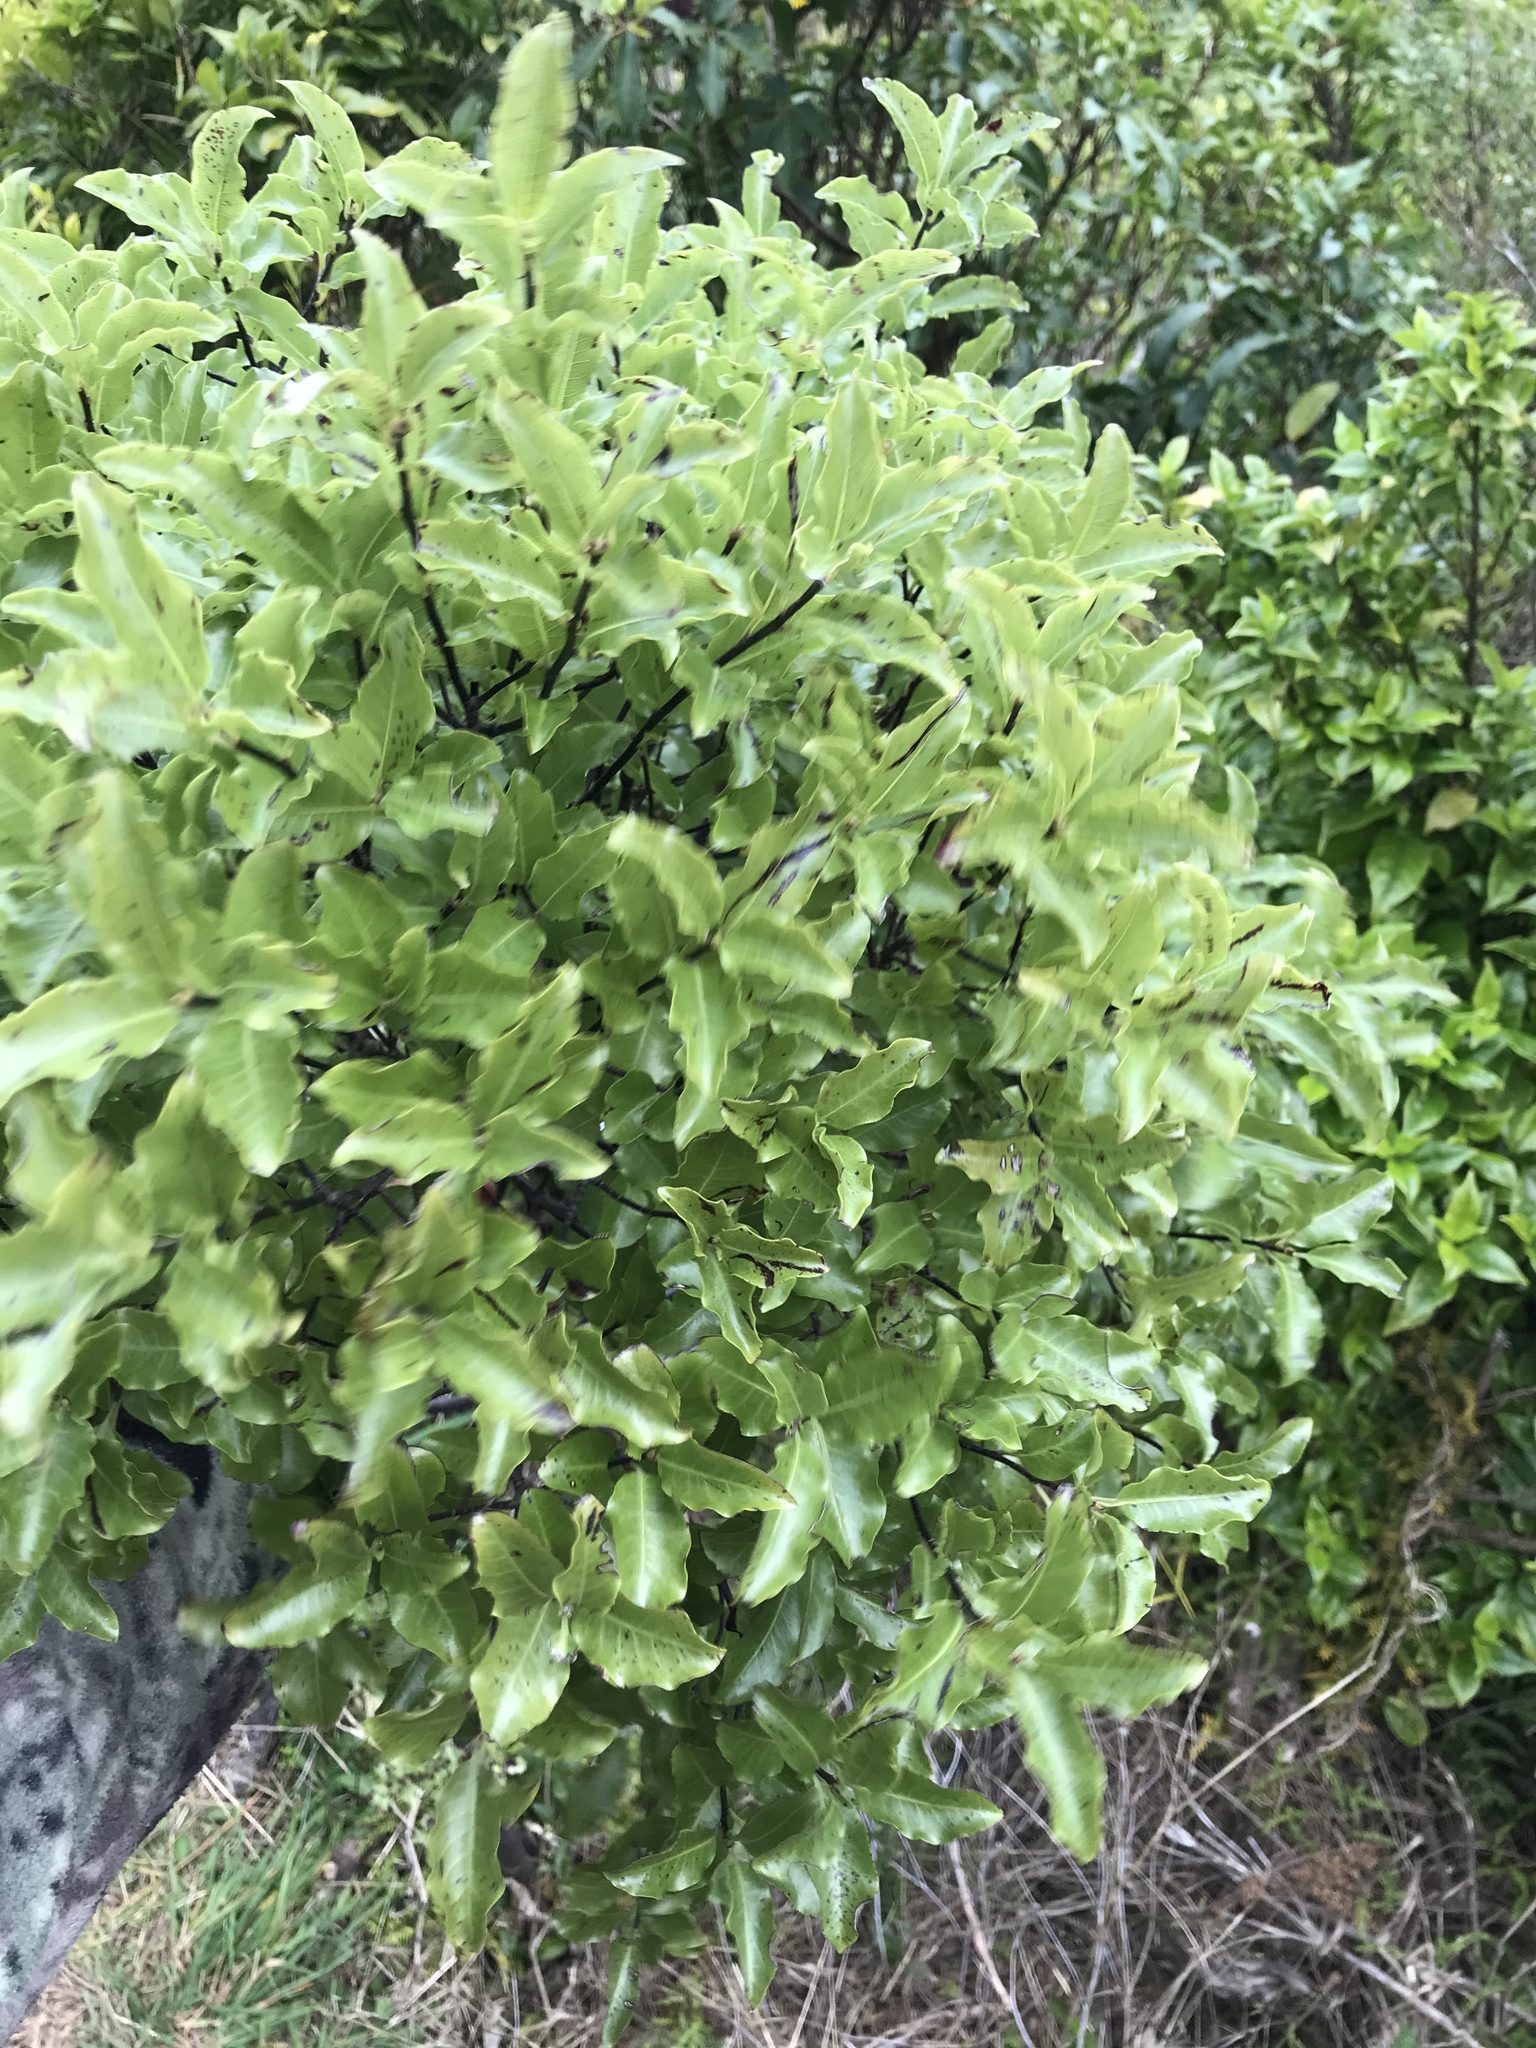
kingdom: Plantae
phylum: Tracheophyta
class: Magnoliopsida
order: Apiales
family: Pittosporaceae
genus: Pittosporum
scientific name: Pittosporum tenuifolium
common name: Kohuhu
